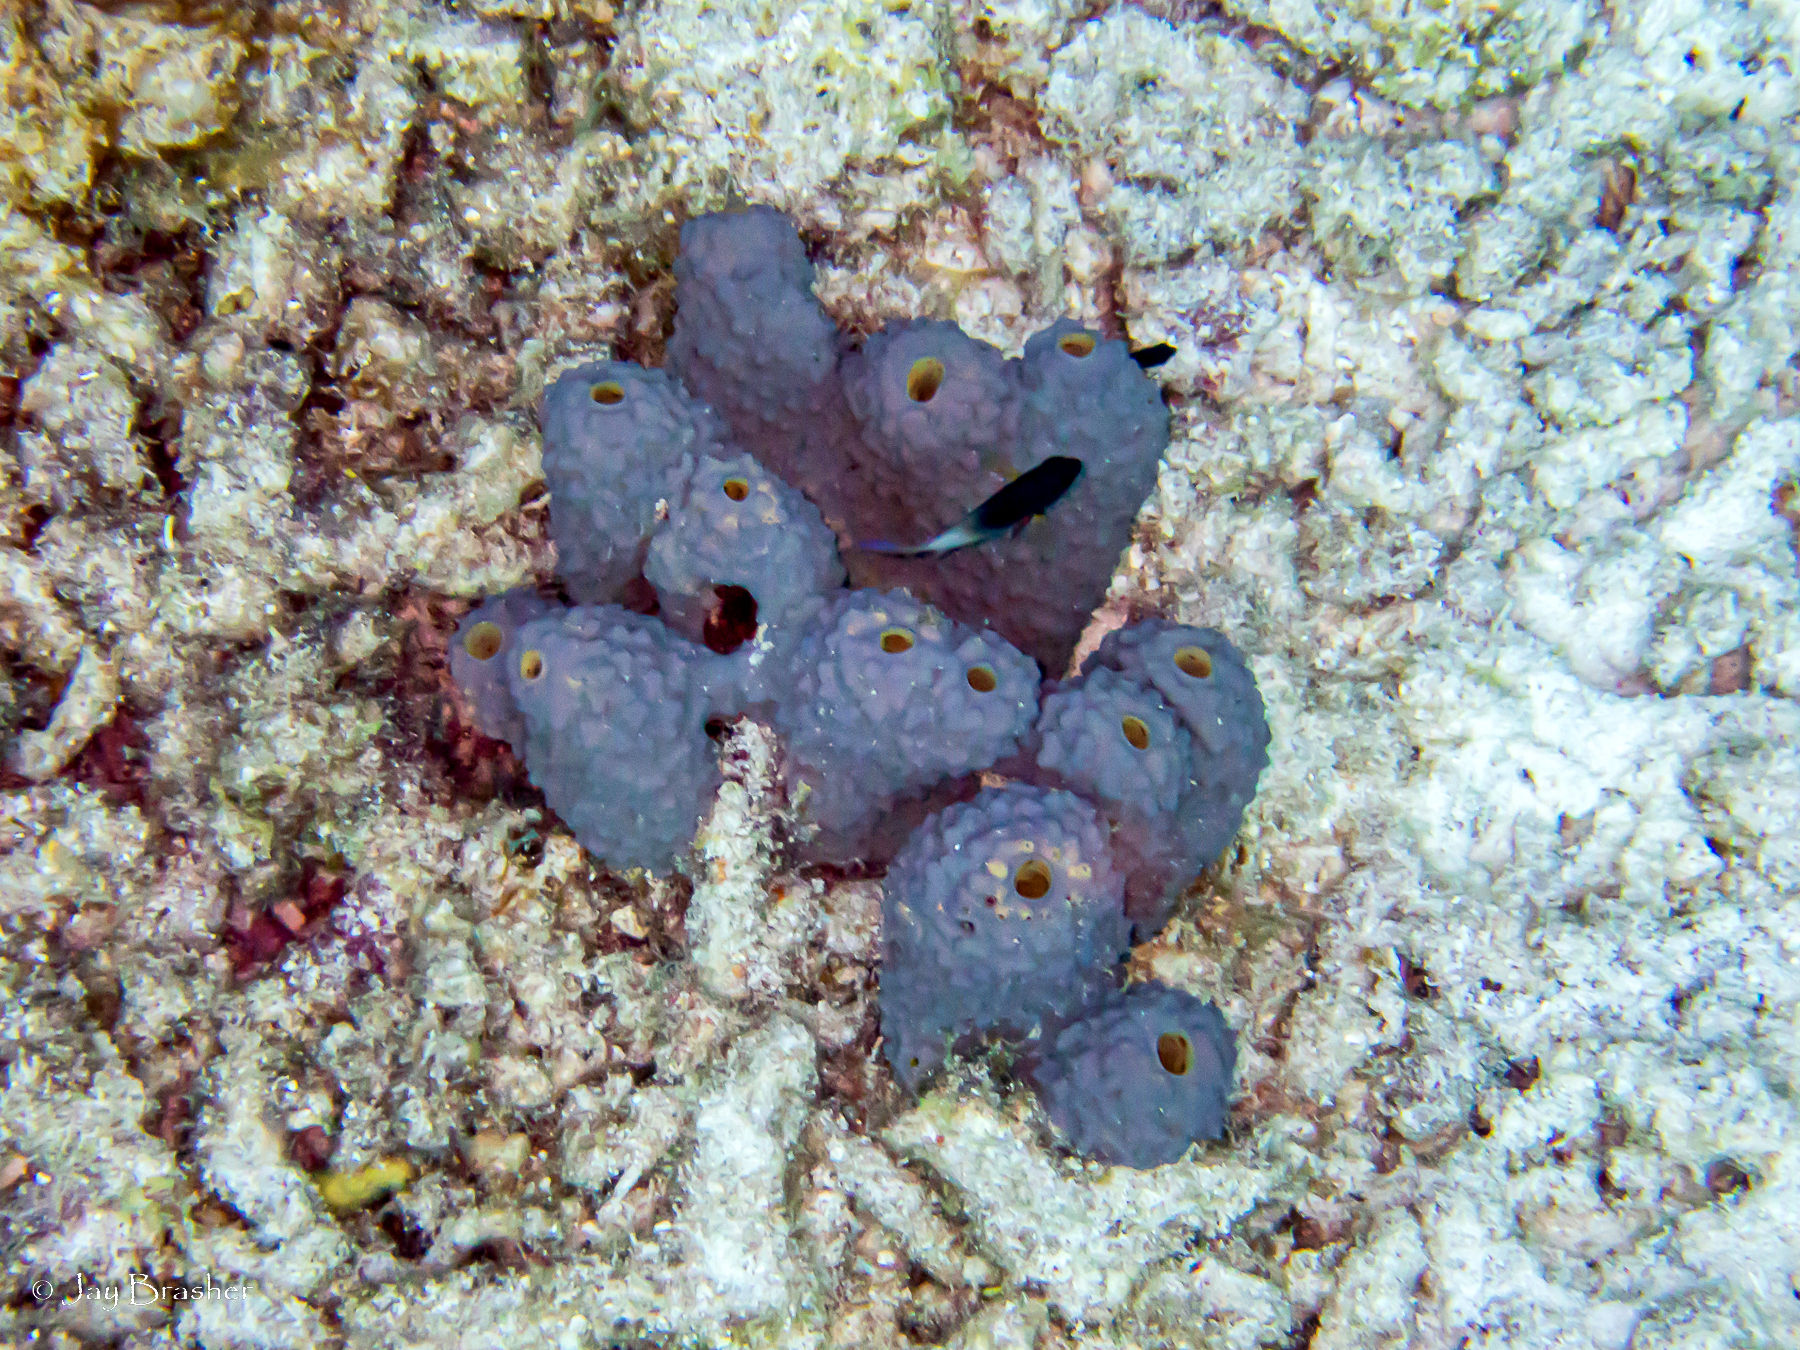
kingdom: Animalia
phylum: Porifera
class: Demospongiae
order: Verongiida
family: Aplysinidae
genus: Aiolochroia
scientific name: Aiolochroia crassa
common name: Branching tube sponge
